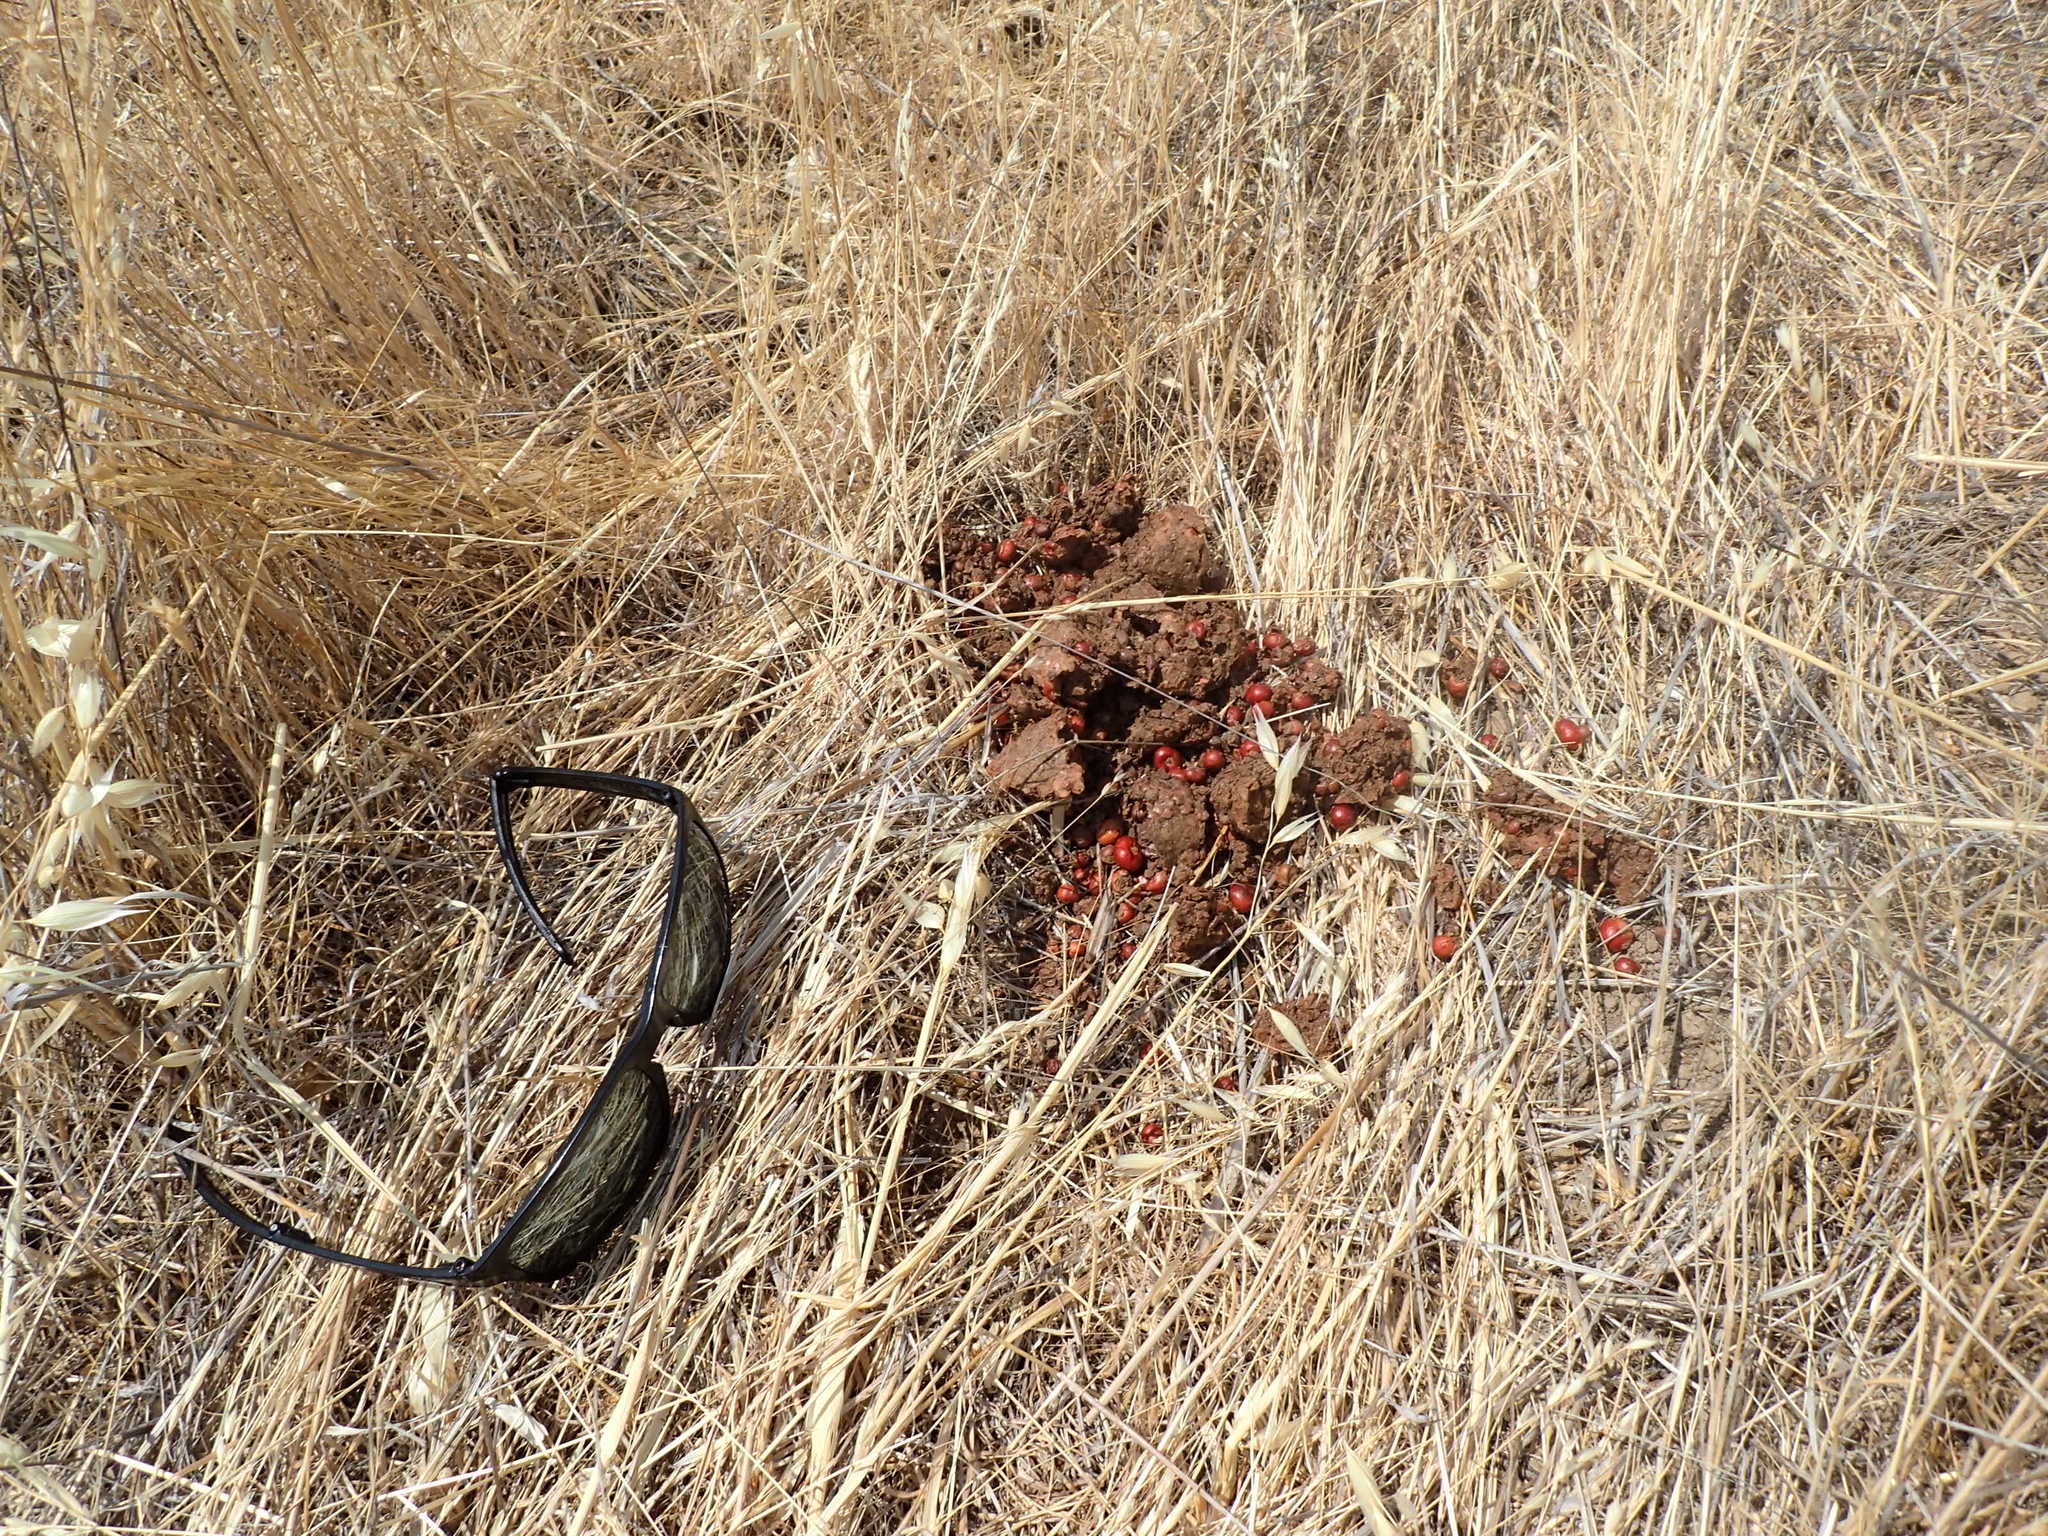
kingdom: Animalia
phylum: Chordata
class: Mammalia
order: Carnivora
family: Ursidae
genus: Ursus
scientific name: Ursus americanus
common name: American black bear
